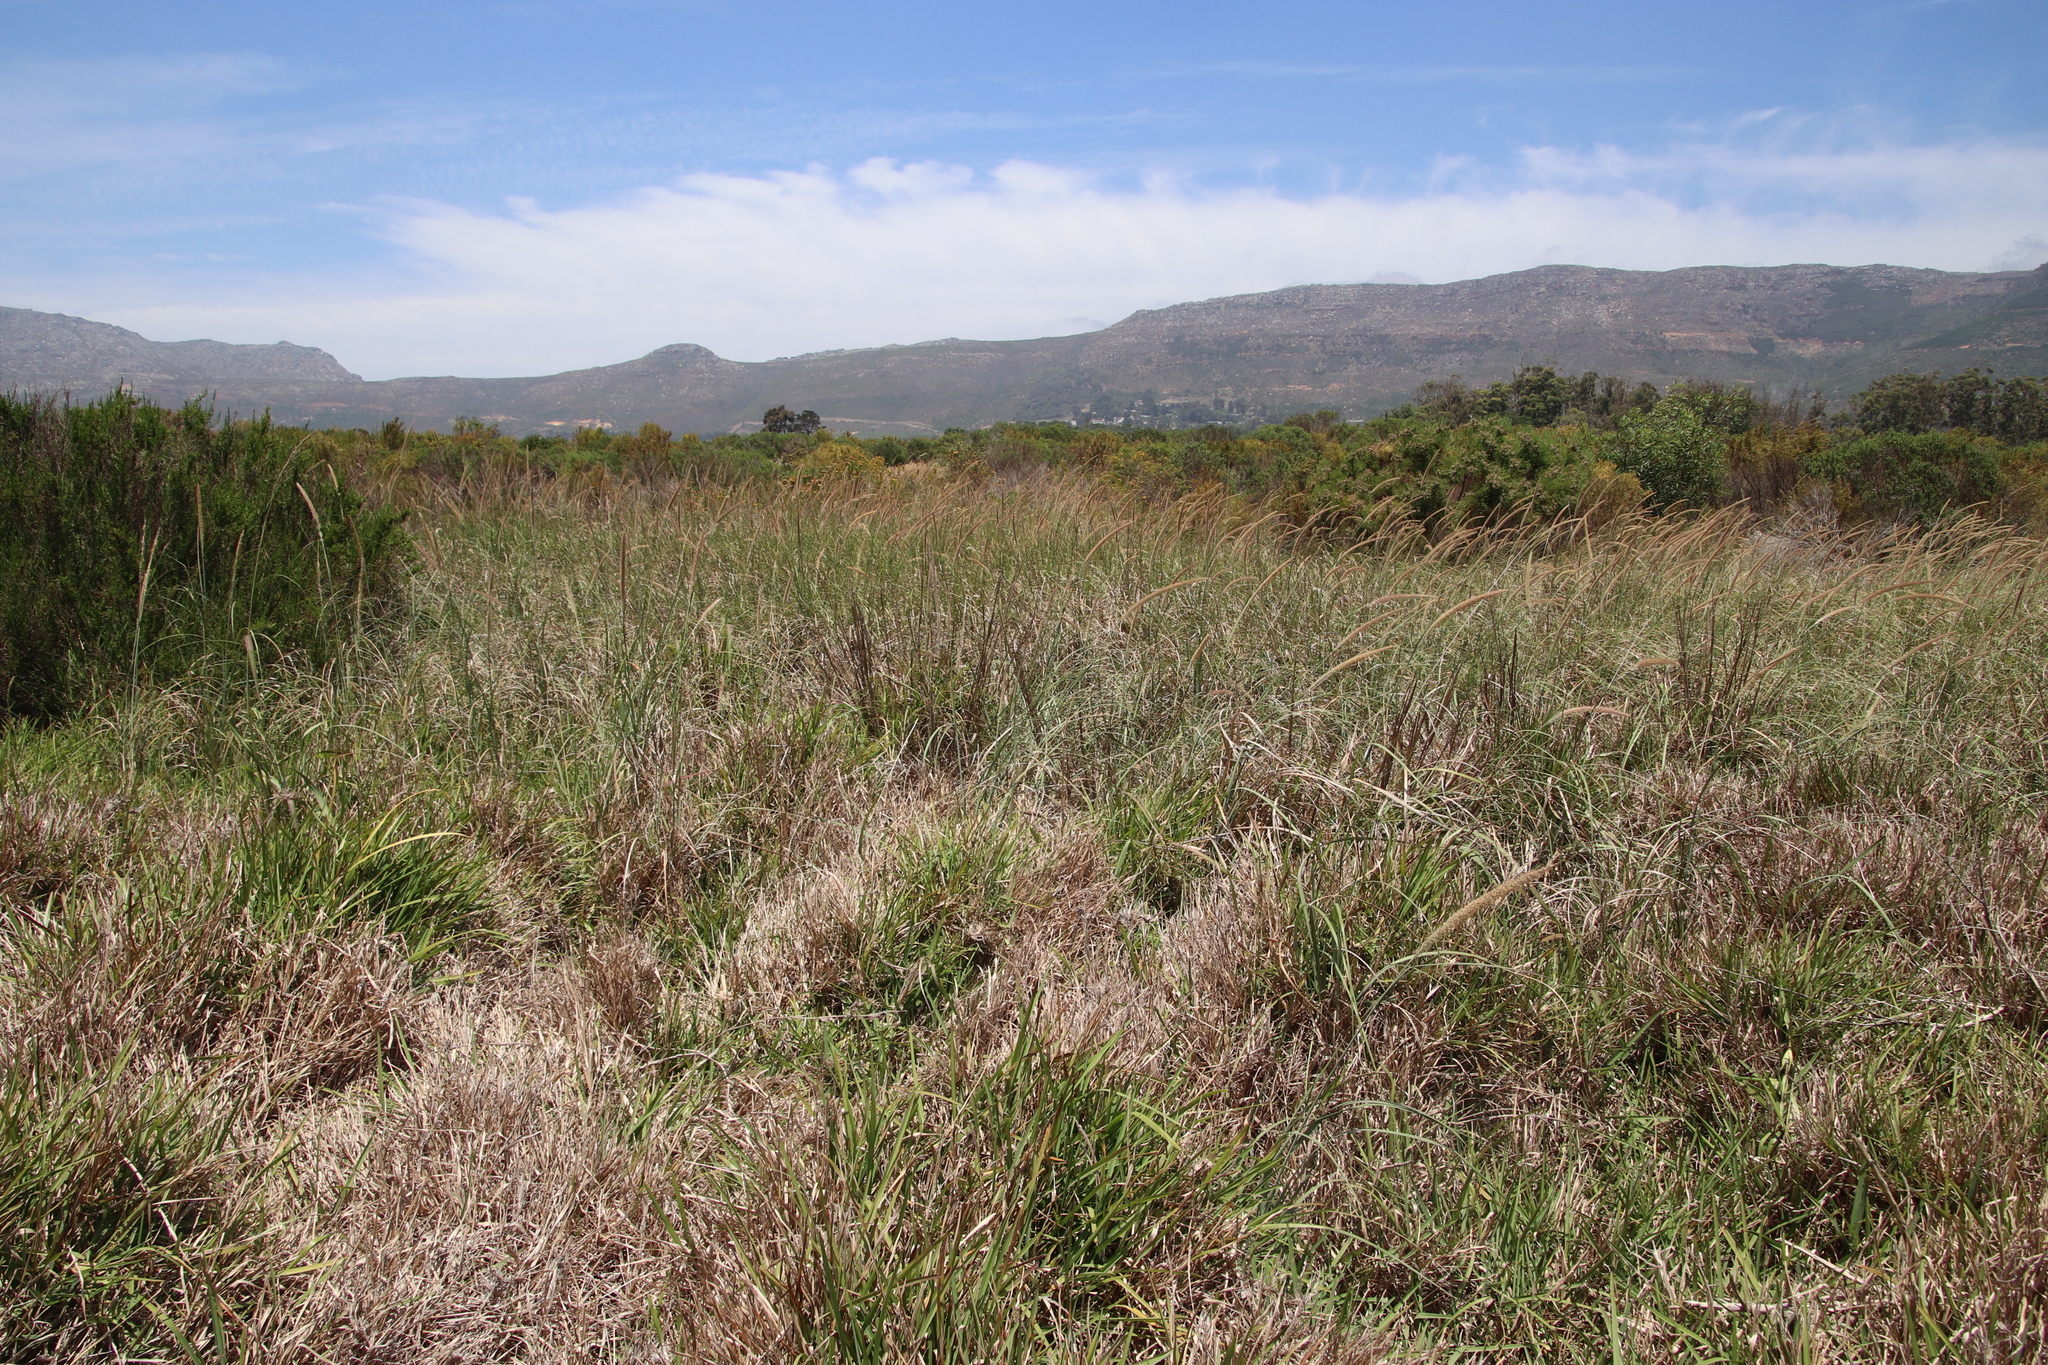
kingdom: Plantae
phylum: Tracheophyta
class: Liliopsida
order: Poales
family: Poaceae
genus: Cenchrus
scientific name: Cenchrus caudatus
